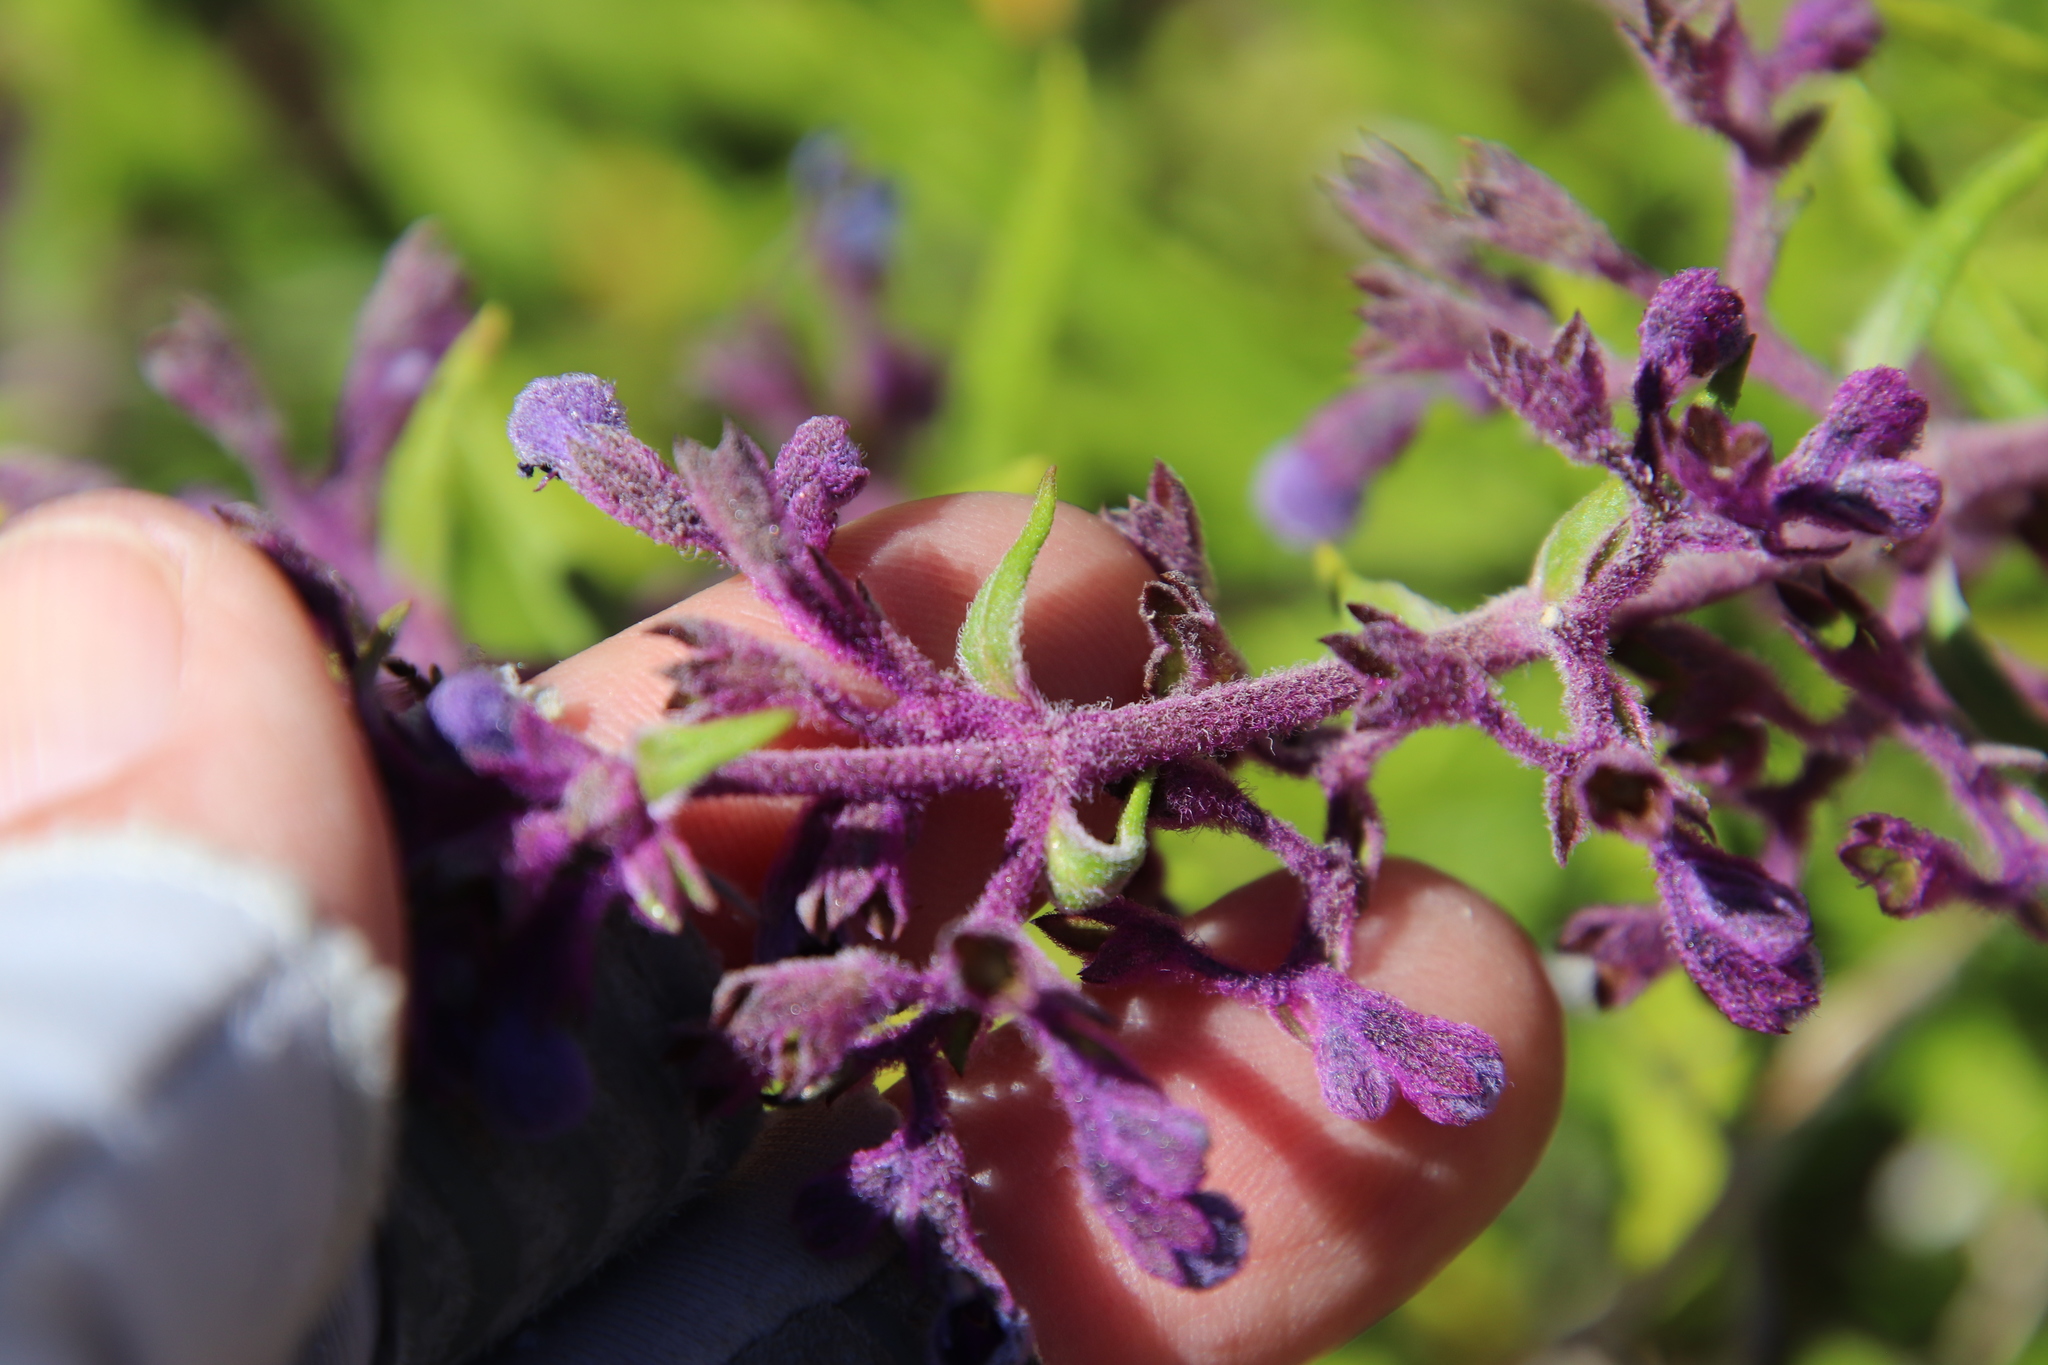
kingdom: Plantae
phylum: Tracheophyta
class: Magnoliopsida
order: Lamiales
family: Lamiaceae
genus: Trichostema
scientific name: Trichostema parishii
